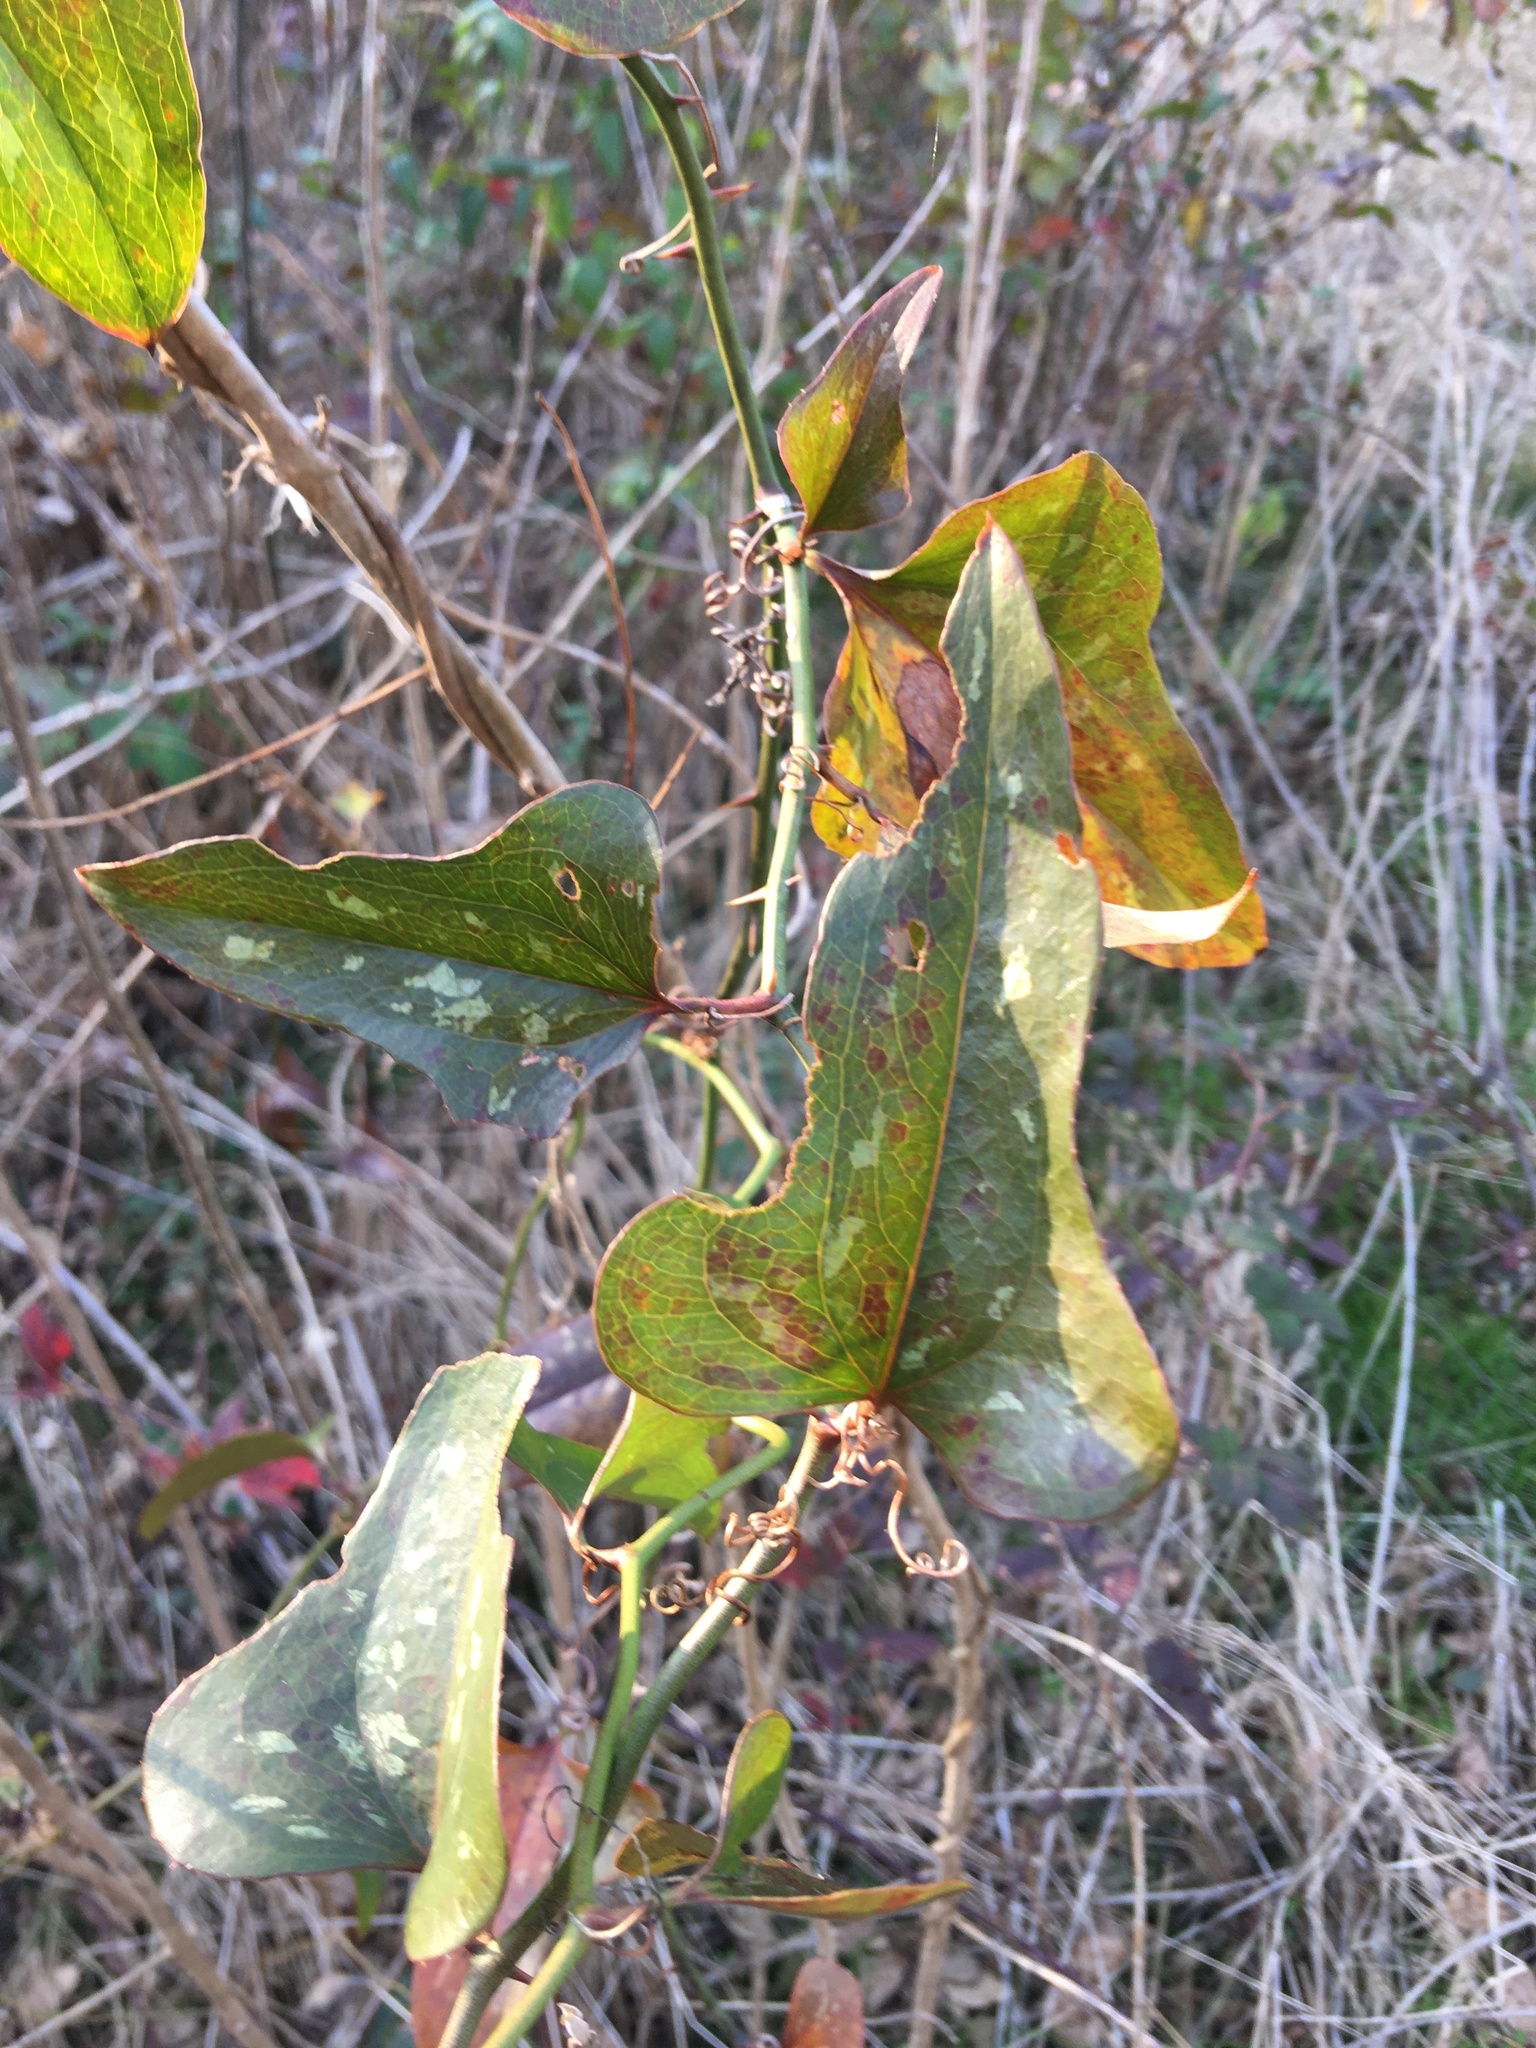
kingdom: Plantae
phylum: Tracheophyta
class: Liliopsida
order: Liliales
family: Smilacaceae
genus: Smilax
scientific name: Smilax bona-nox
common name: Catbrier
